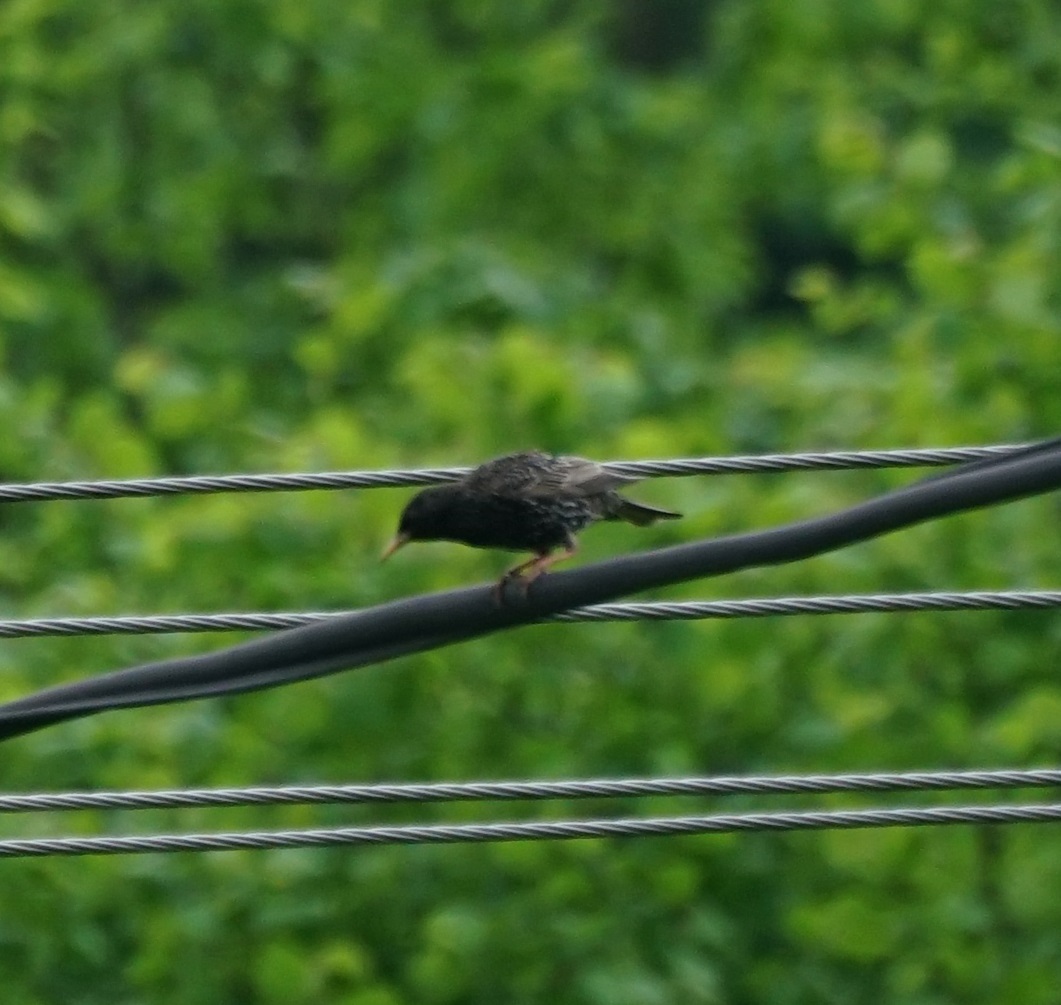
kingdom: Animalia
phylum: Chordata
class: Aves
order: Passeriformes
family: Sturnidae
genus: Sturnus
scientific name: Sturnus vulgaris
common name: Common starling
